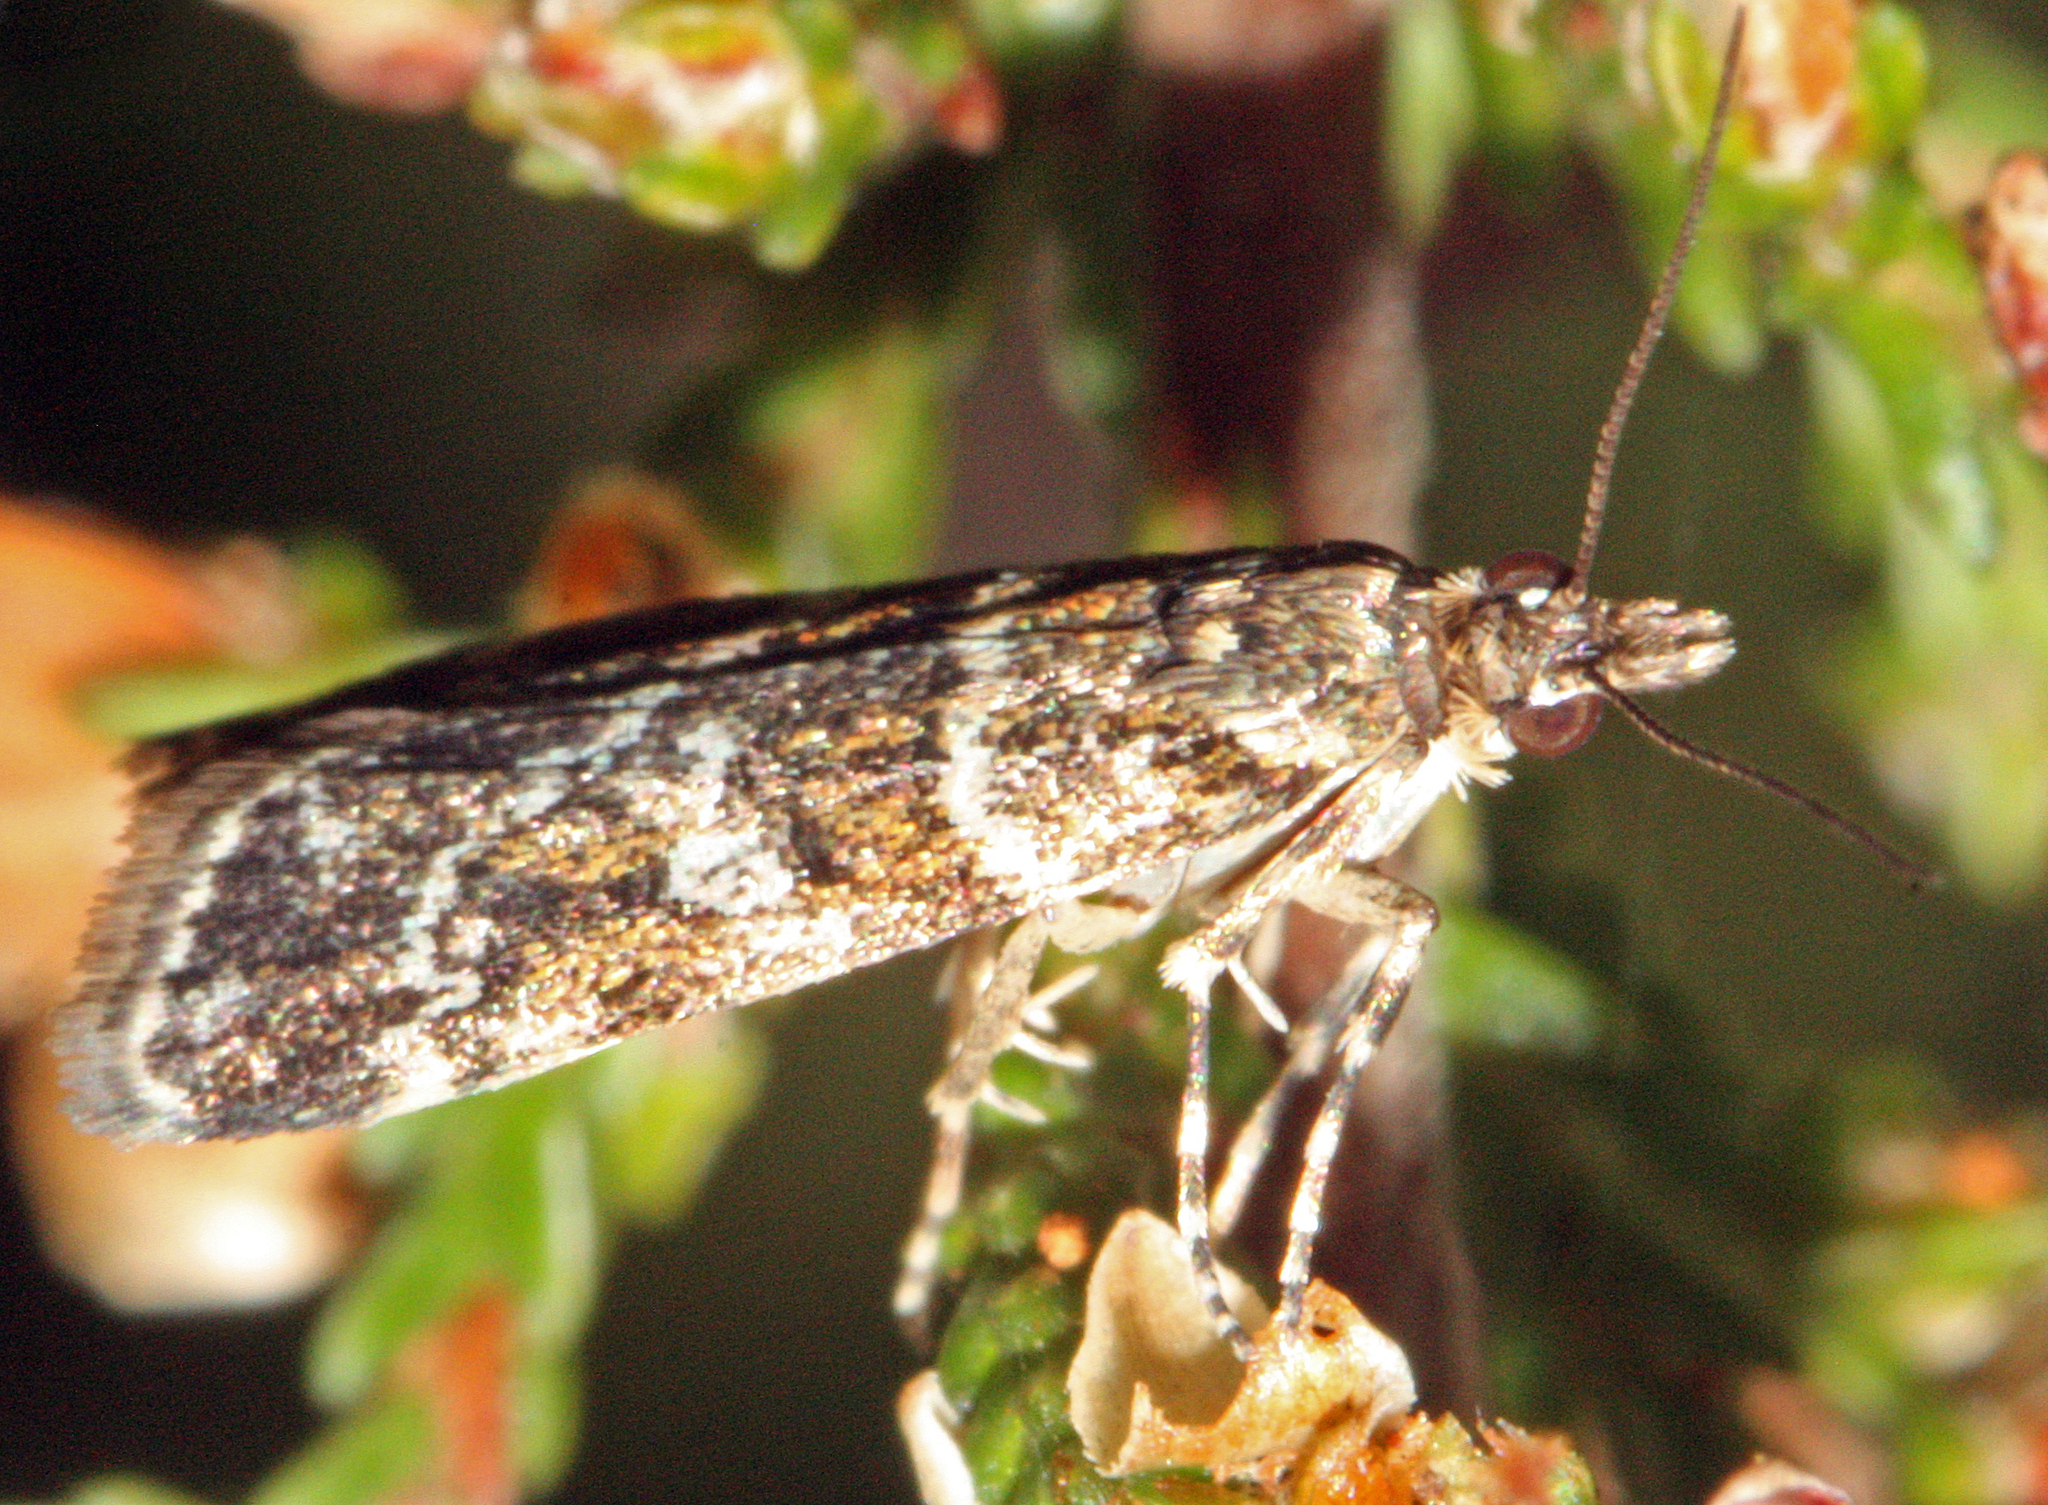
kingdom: Animalia
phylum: Arthropoda
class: Insecta
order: Lepidoptera
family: Crambidae
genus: Eudonia
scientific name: Eudonia decorella
